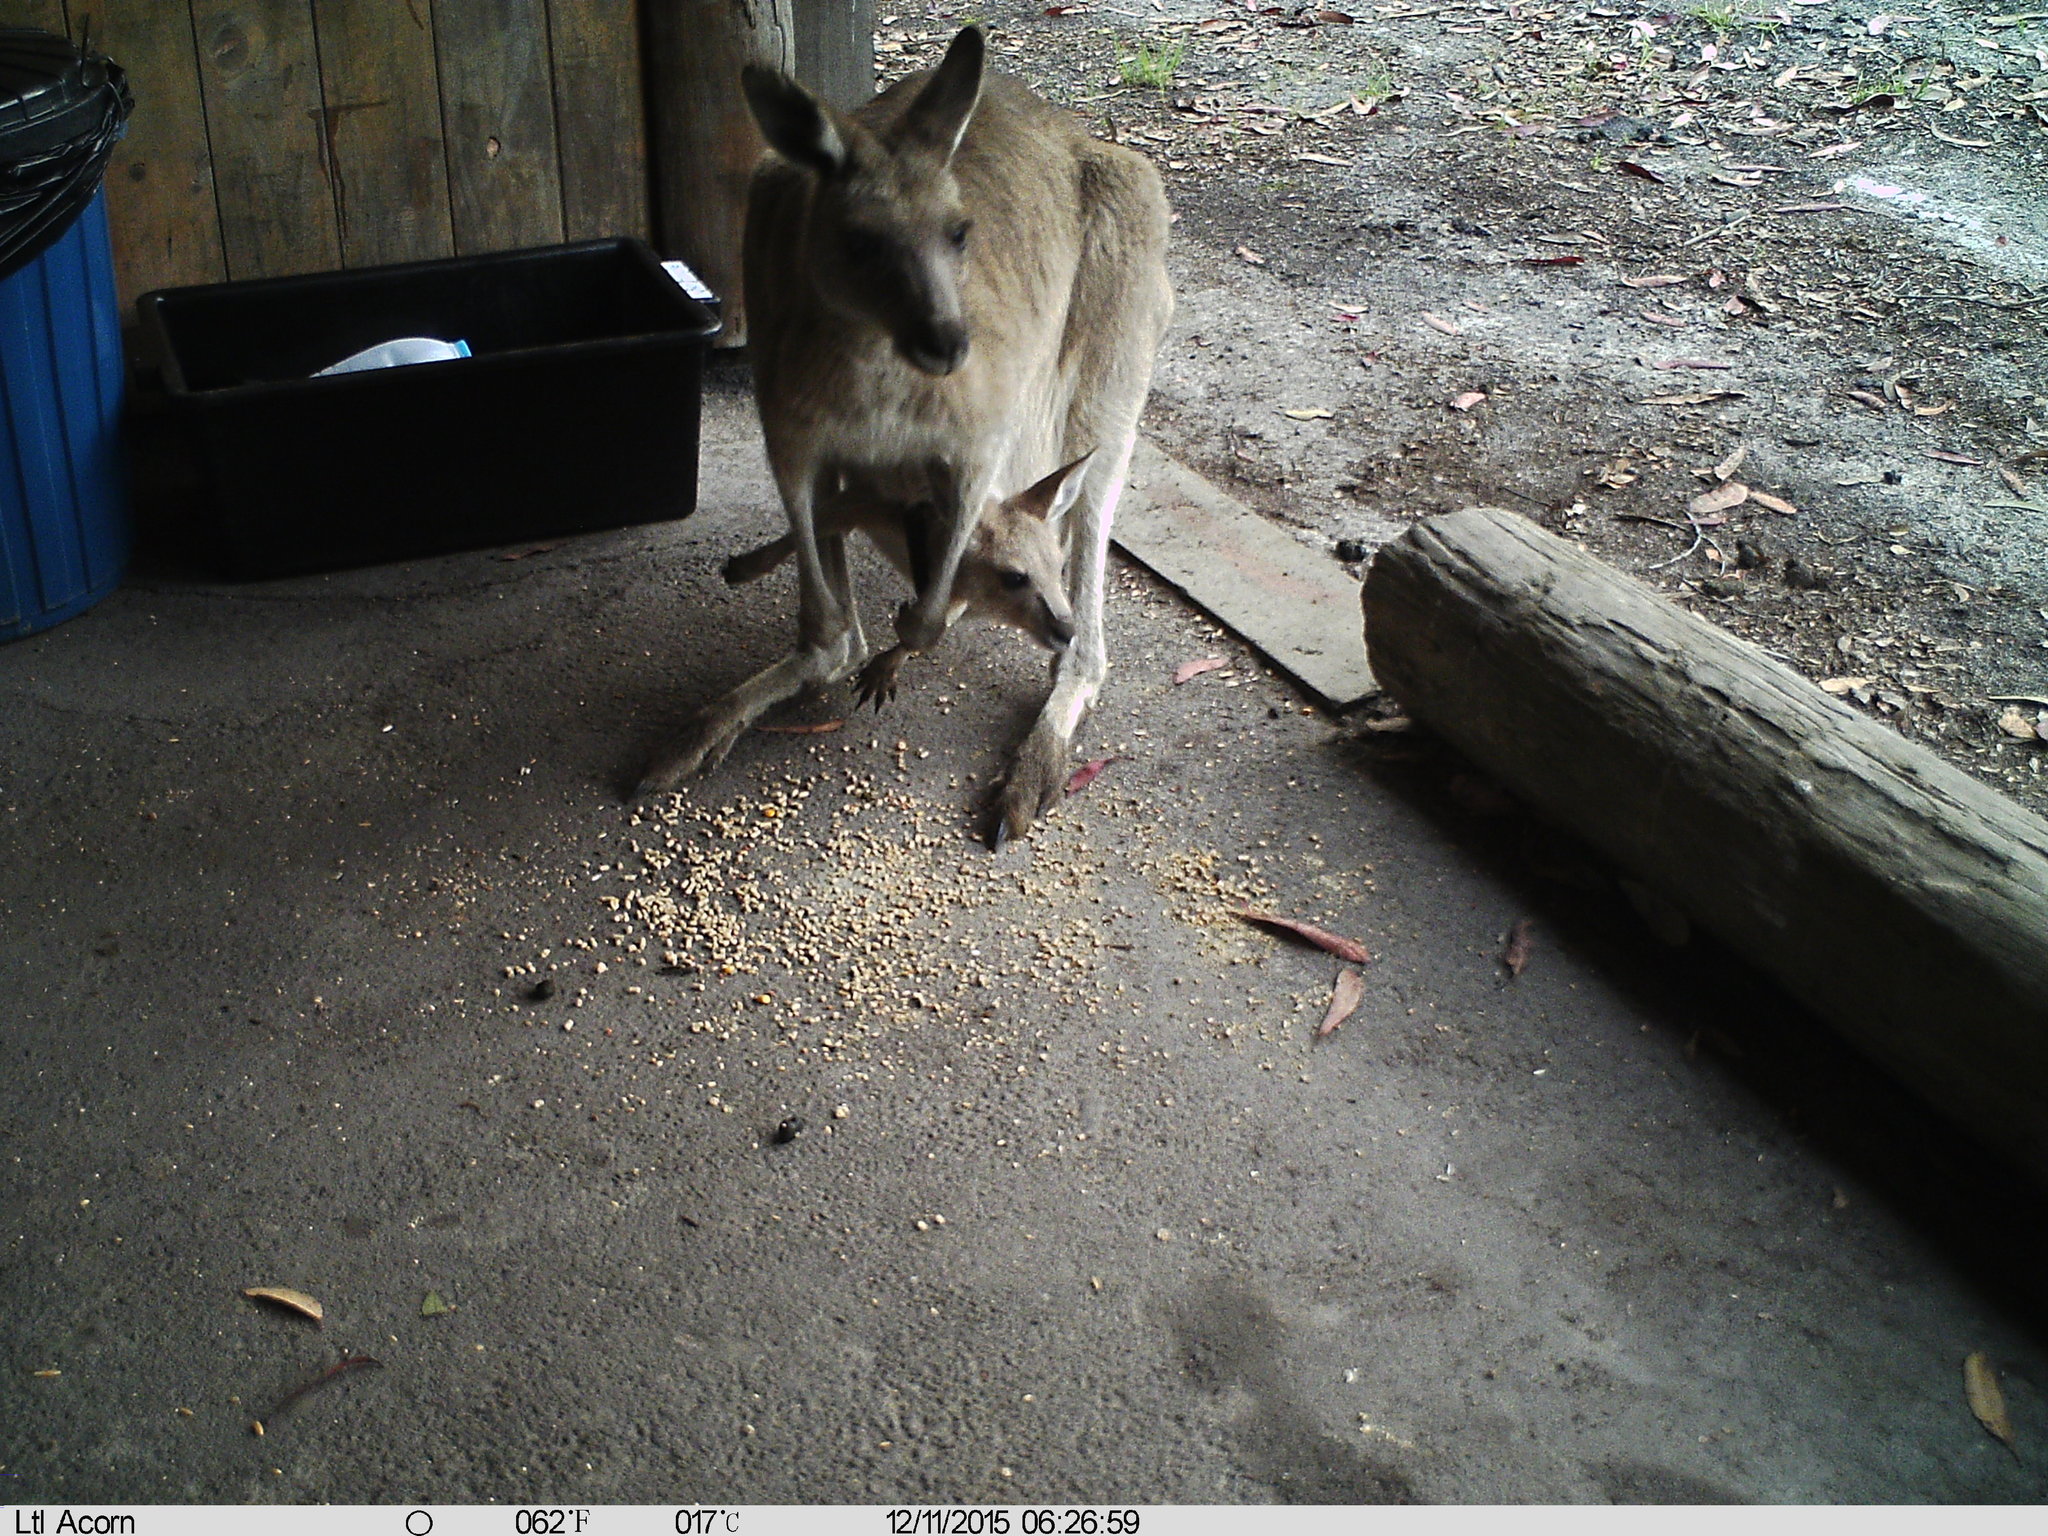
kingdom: Animalia
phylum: Chordata
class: Mammalia
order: Diprotodontia
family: Macropodidae
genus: Macropus
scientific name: Macropus giganteus
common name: Eastern grey kangaroo
